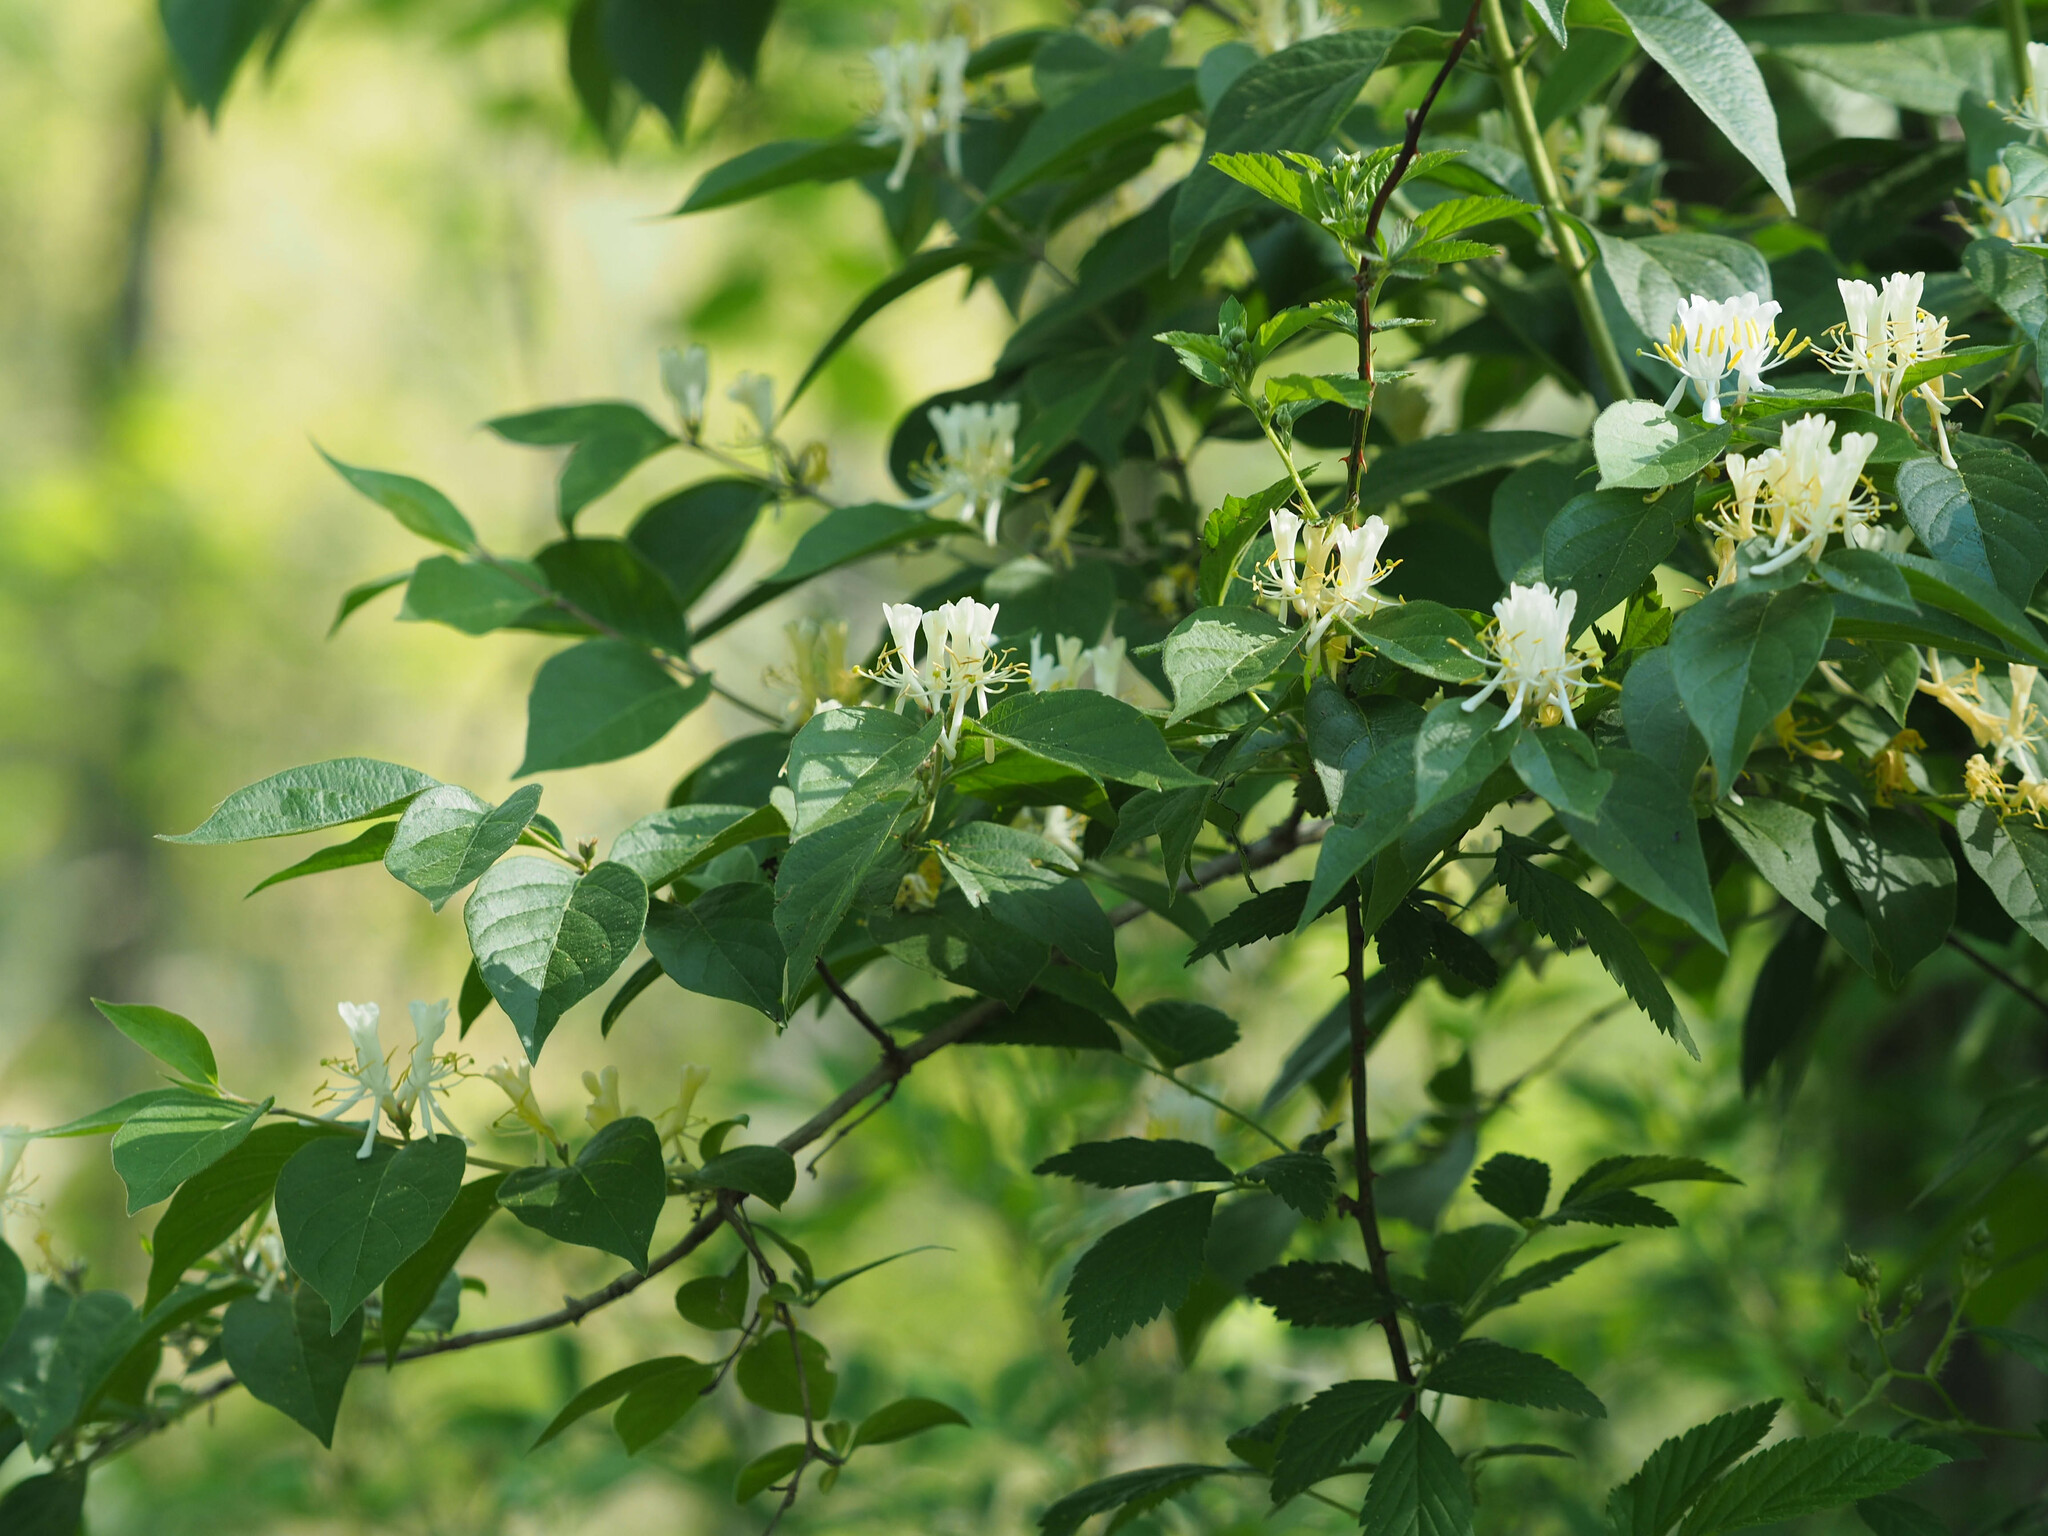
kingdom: Plantae
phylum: Tracheophyta
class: Magnoliopsida
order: Dipsacales
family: Caprifoliaceae
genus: Lonicera
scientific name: Lonicera maackii
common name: Amur honeysuckle
